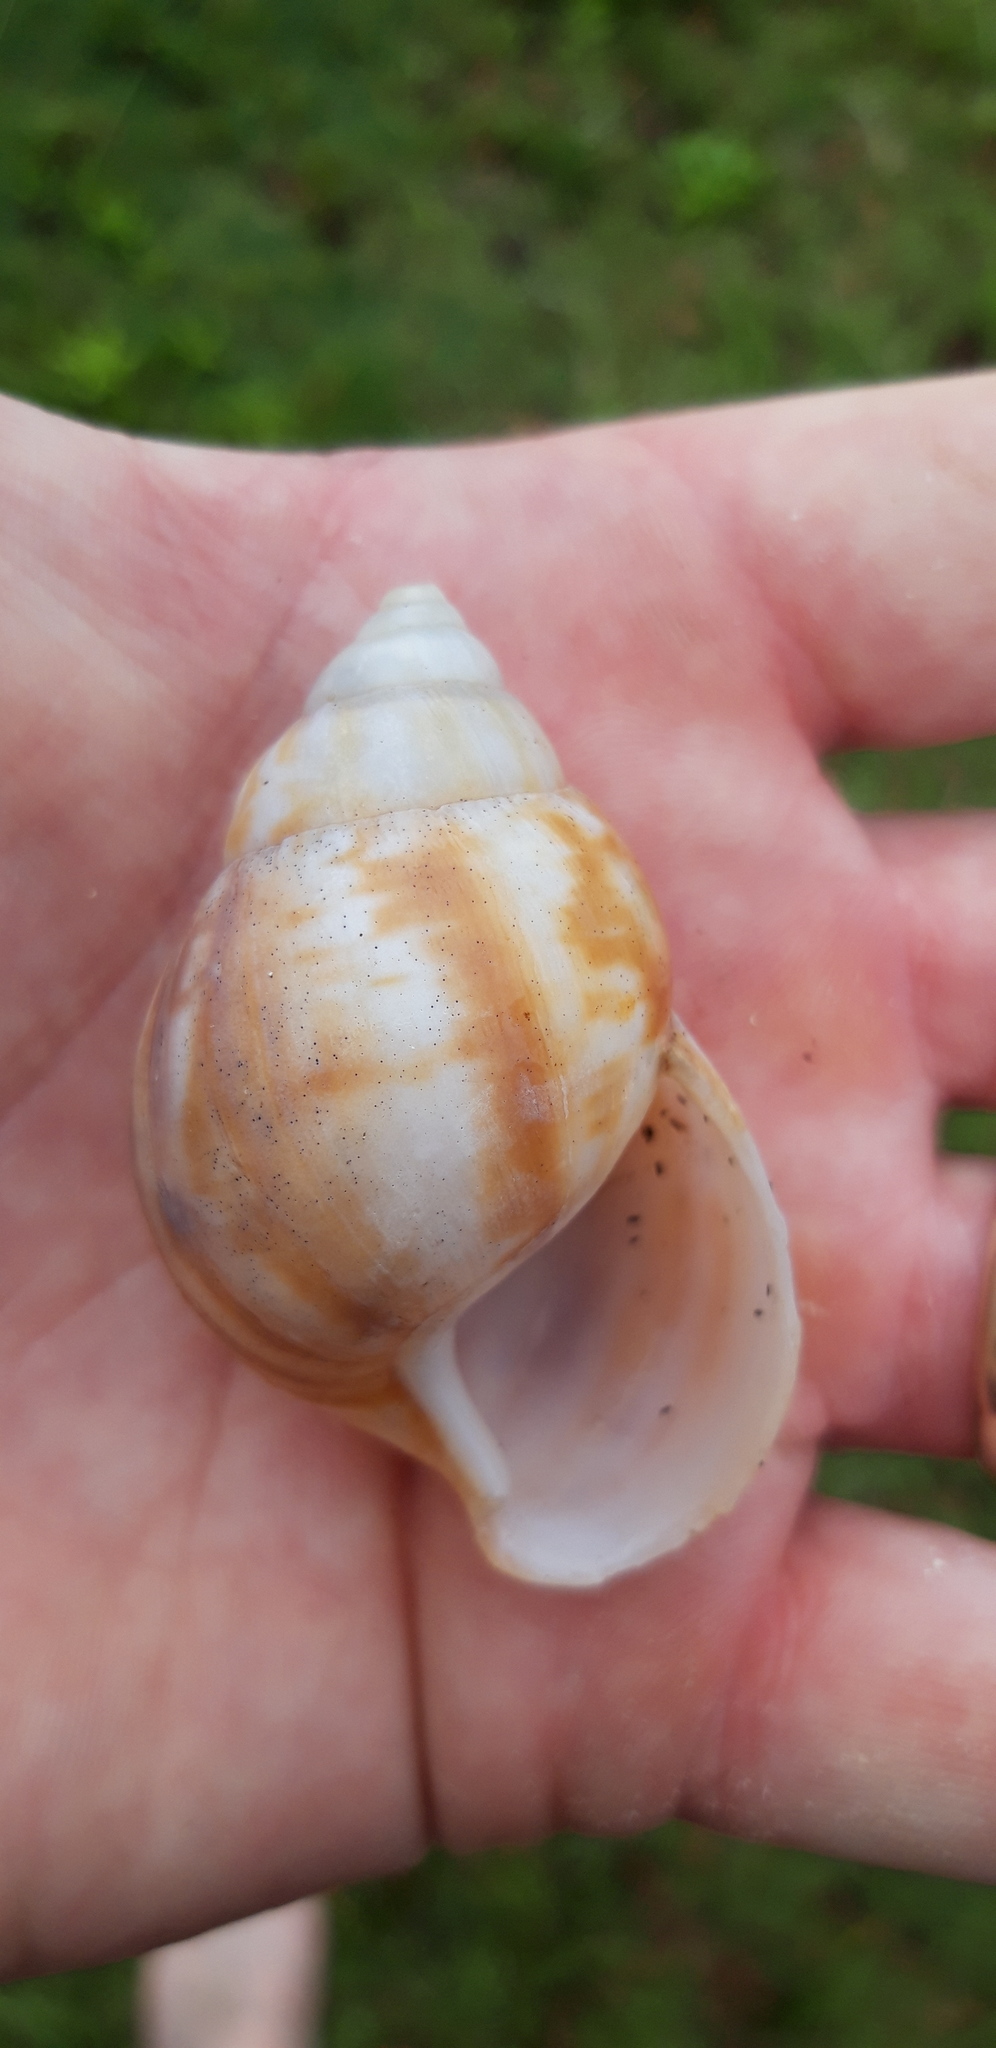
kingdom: Animalia
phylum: Mollusca
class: Gastropoda
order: Stylommatophora
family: Achatinidae
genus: Lissachatina
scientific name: Lissachatina fulica
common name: Giant african snail
